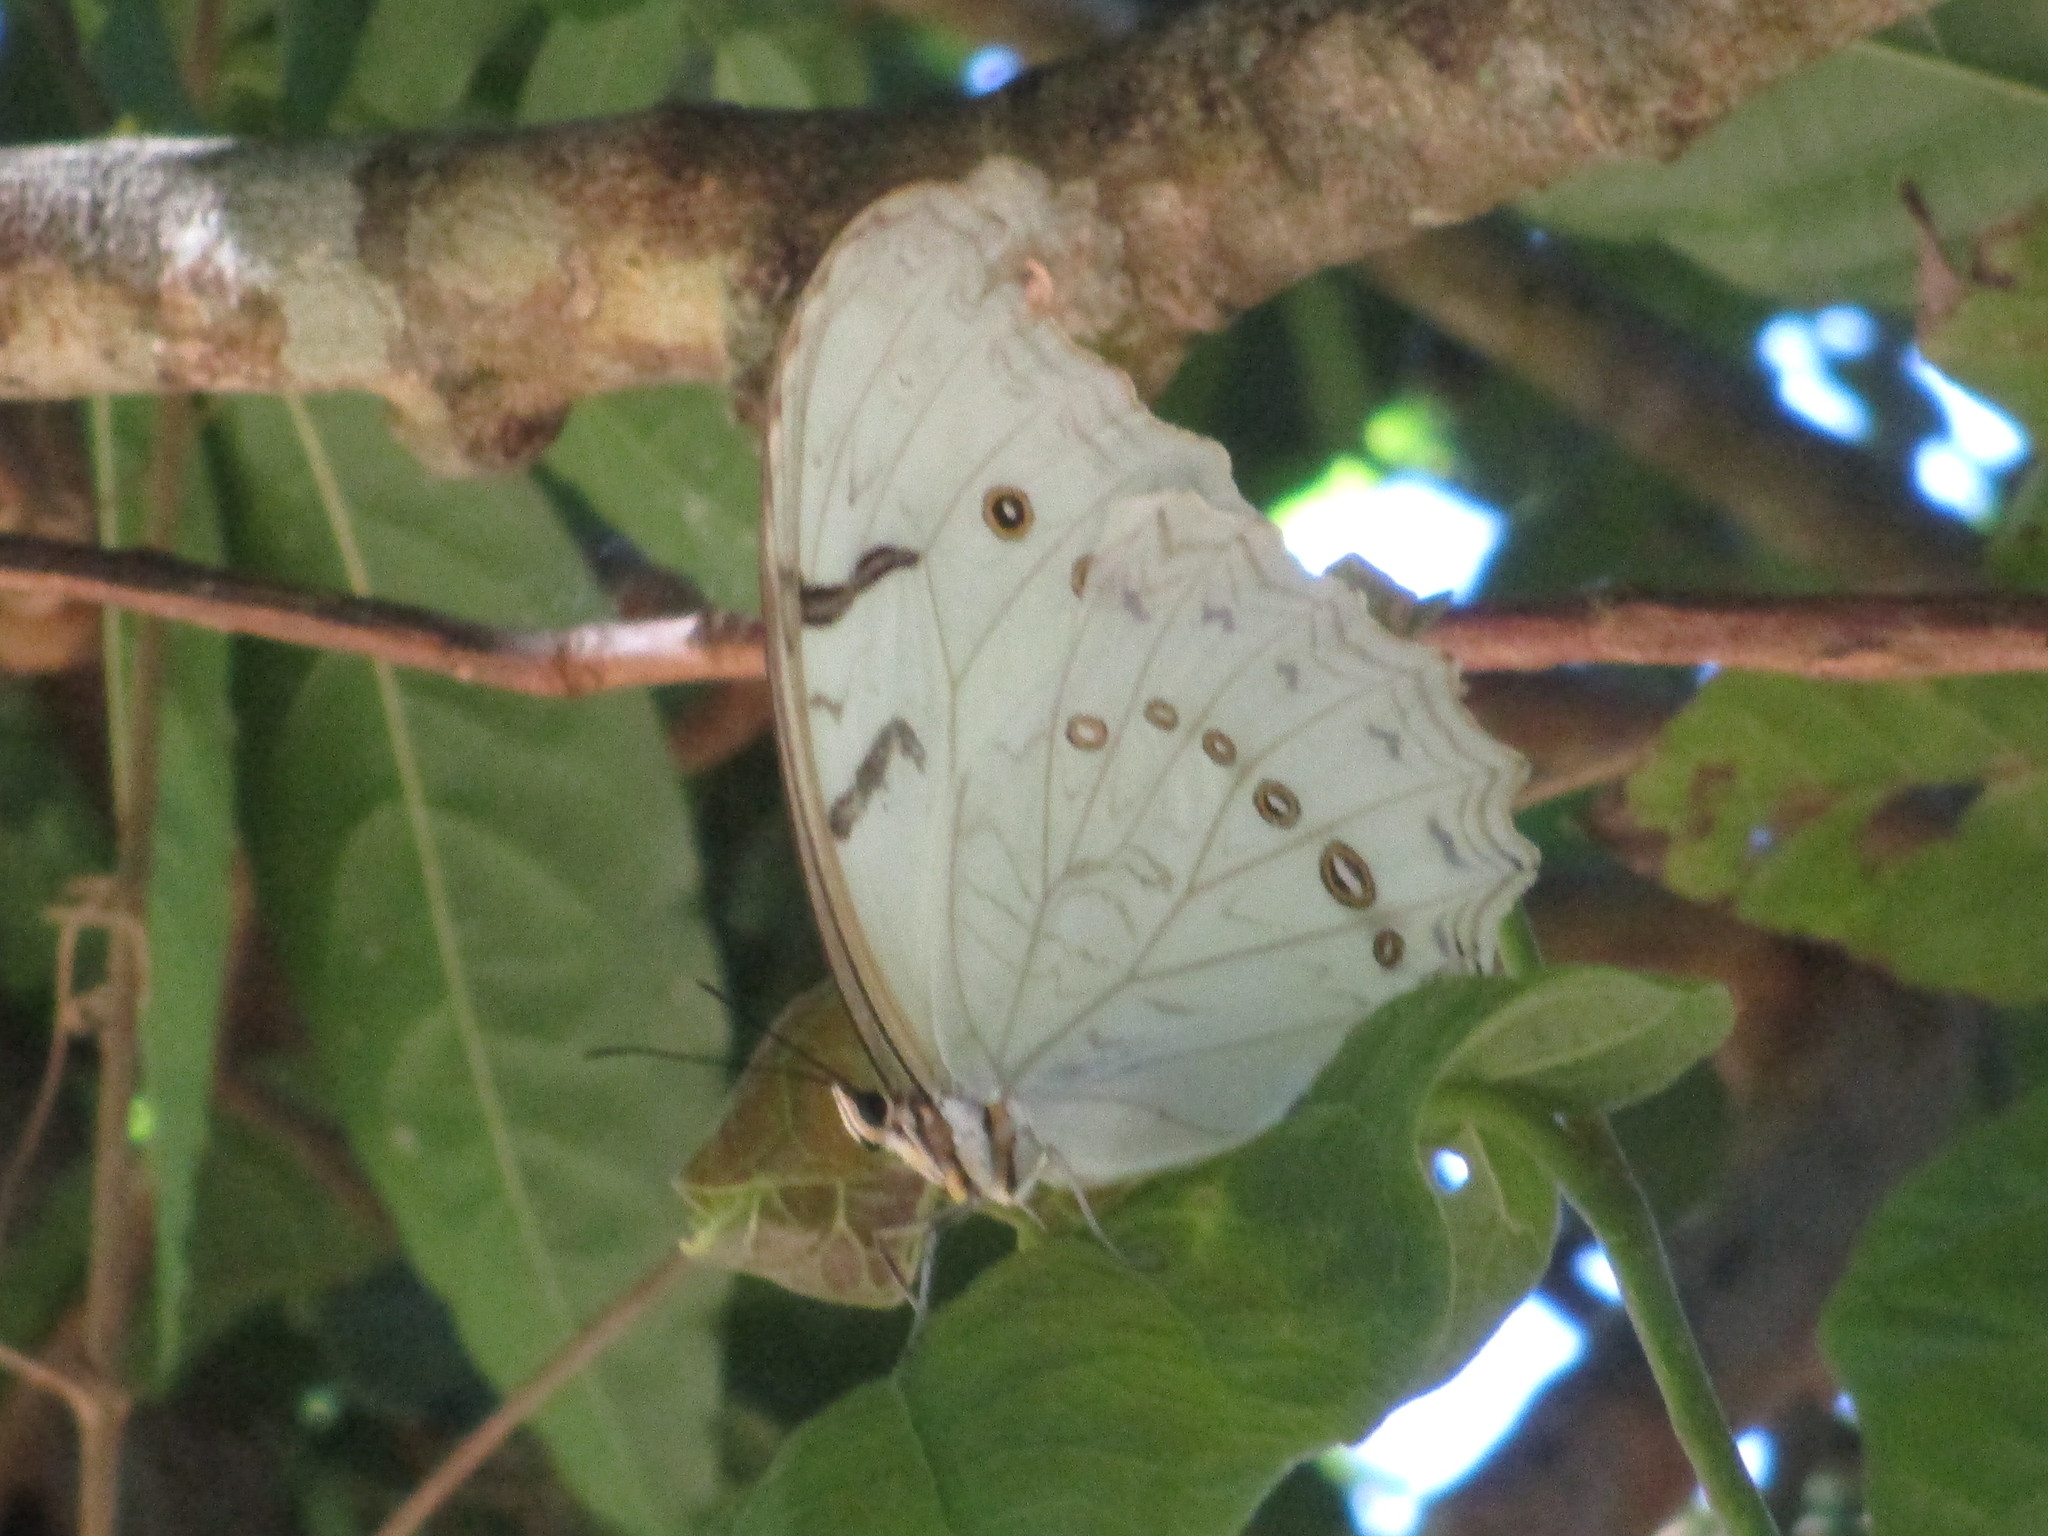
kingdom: Animalia
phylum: Arthropoda
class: Insecta
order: Lepidoptera
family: Nymphalidae
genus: Morpho
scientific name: Morpho polyphemus
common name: White morpho
